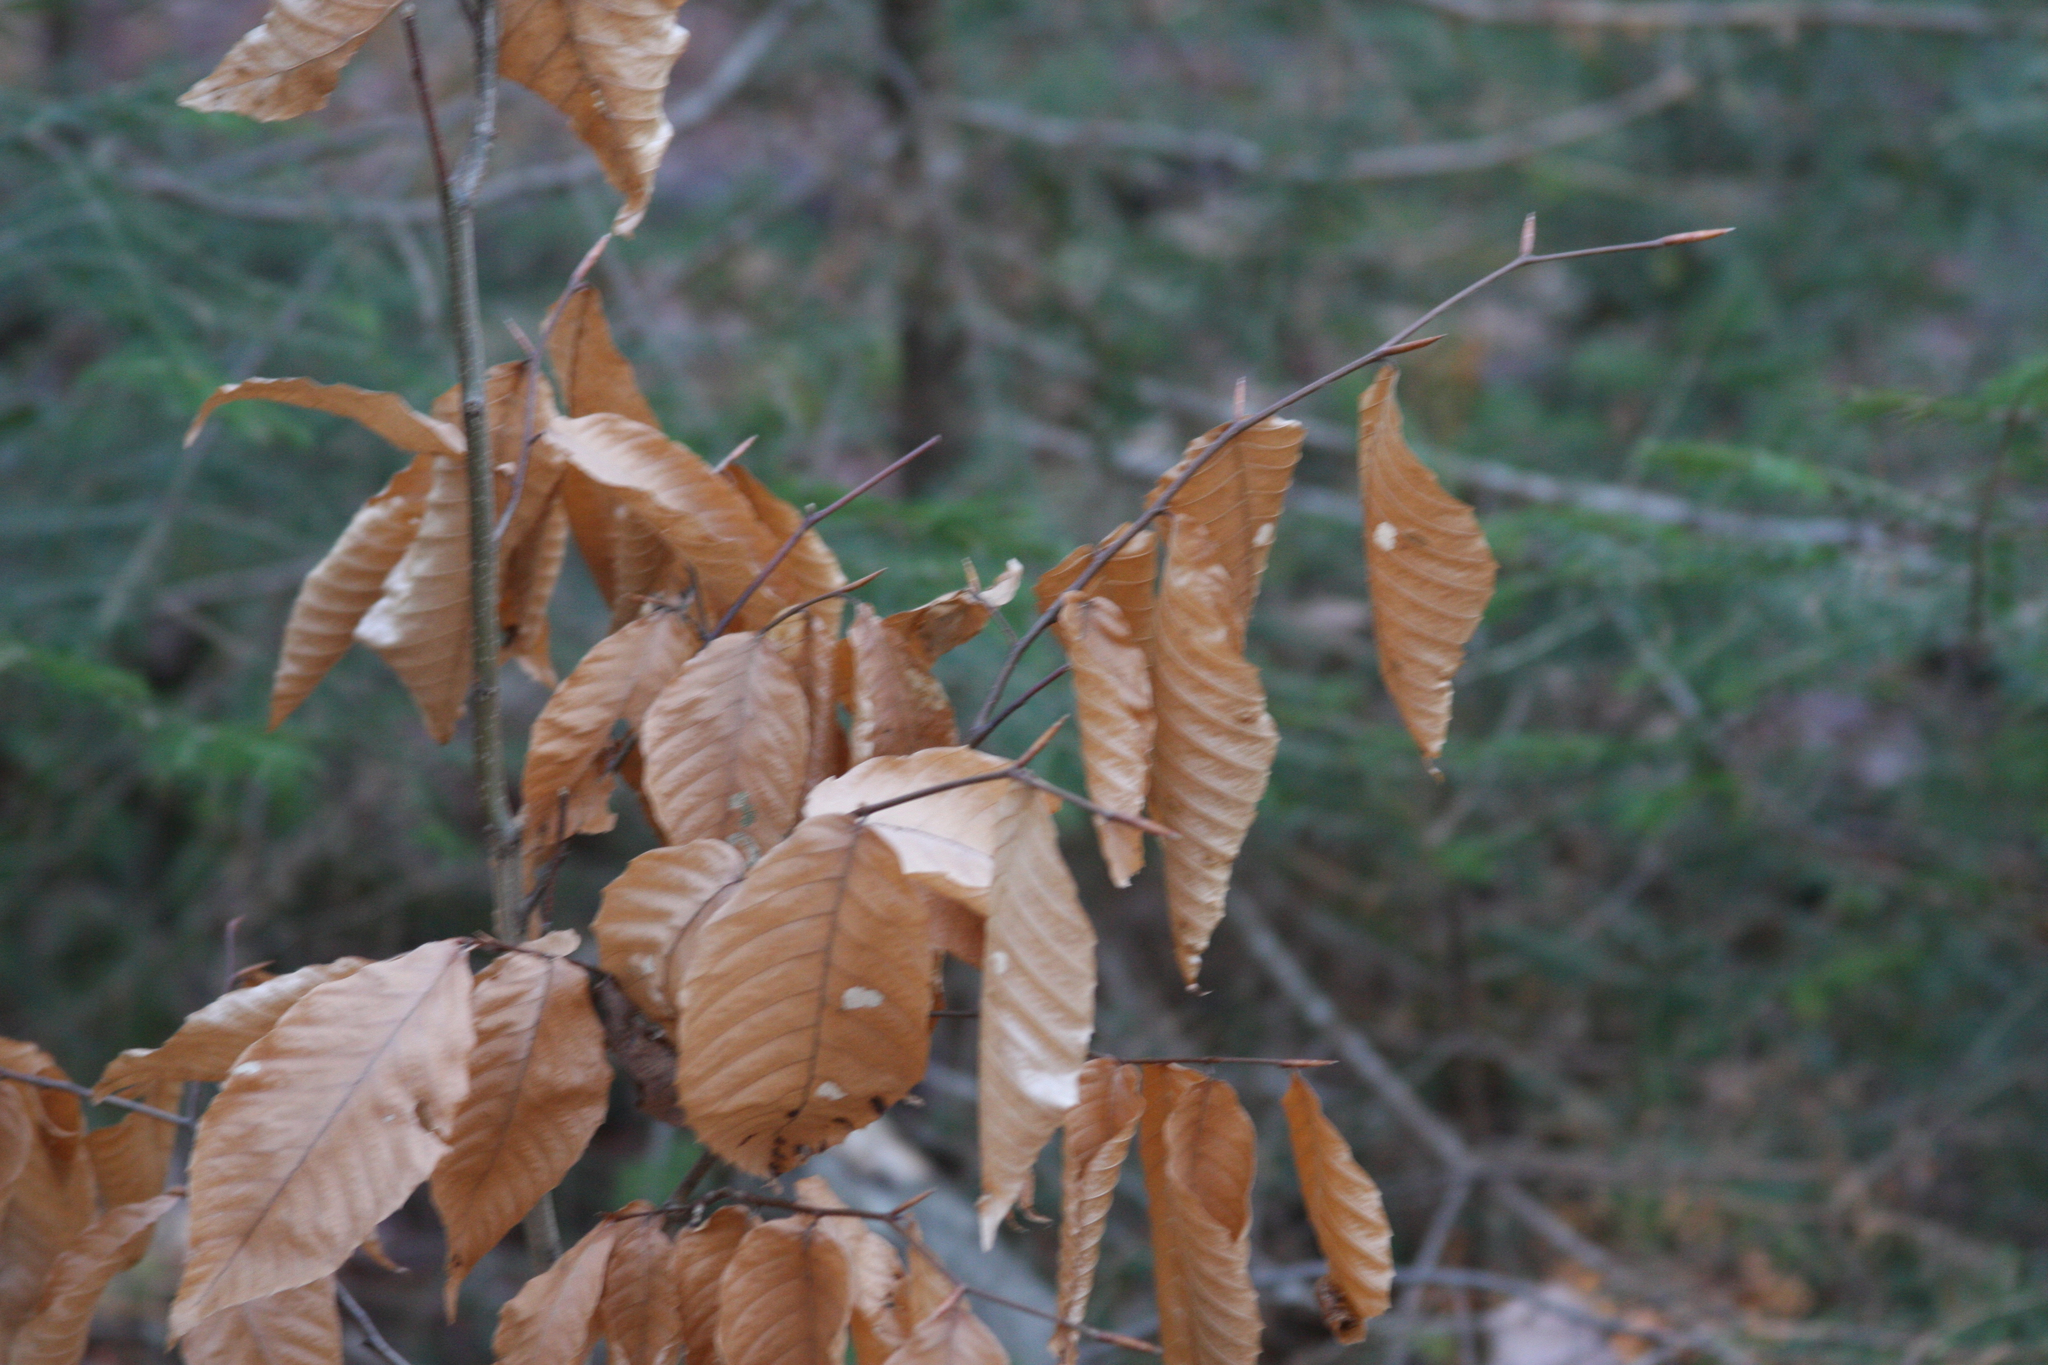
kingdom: Plantae
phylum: Tracheophyta
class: Magnoliopsida
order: Fagales
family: Fagaceae
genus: Fagus
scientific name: Fagus grandifolia
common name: American beech
